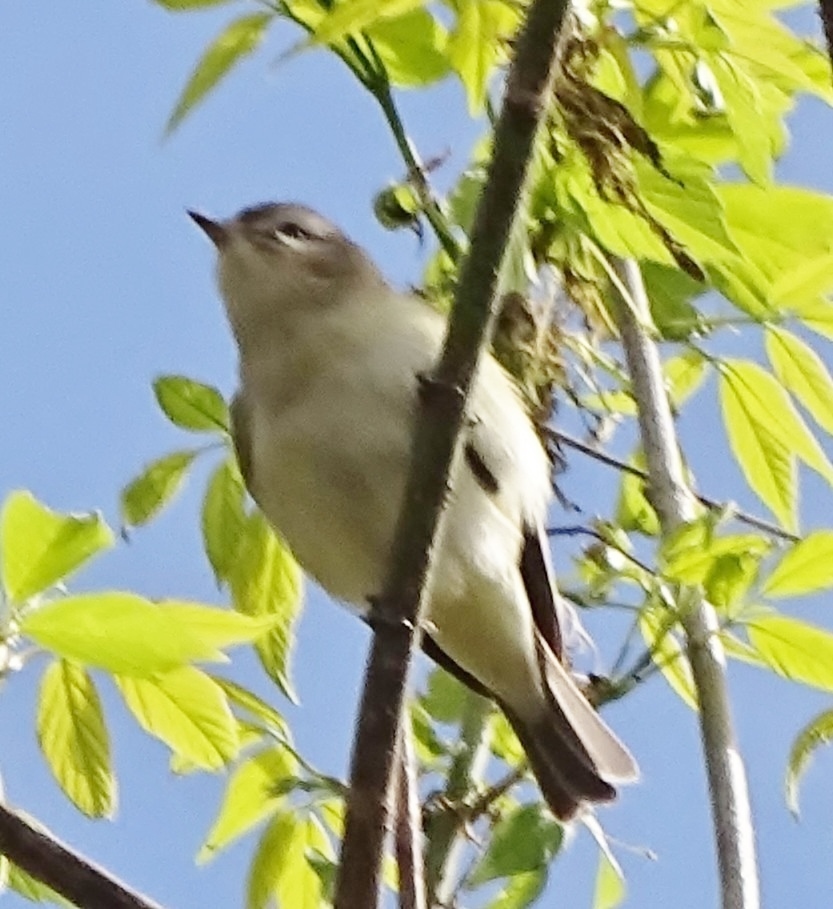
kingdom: Animalia
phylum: Chordata
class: Aves
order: Passeriformes
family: Vireonidae
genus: Vireo
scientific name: Vireo gilvus
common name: Warbling vireo
